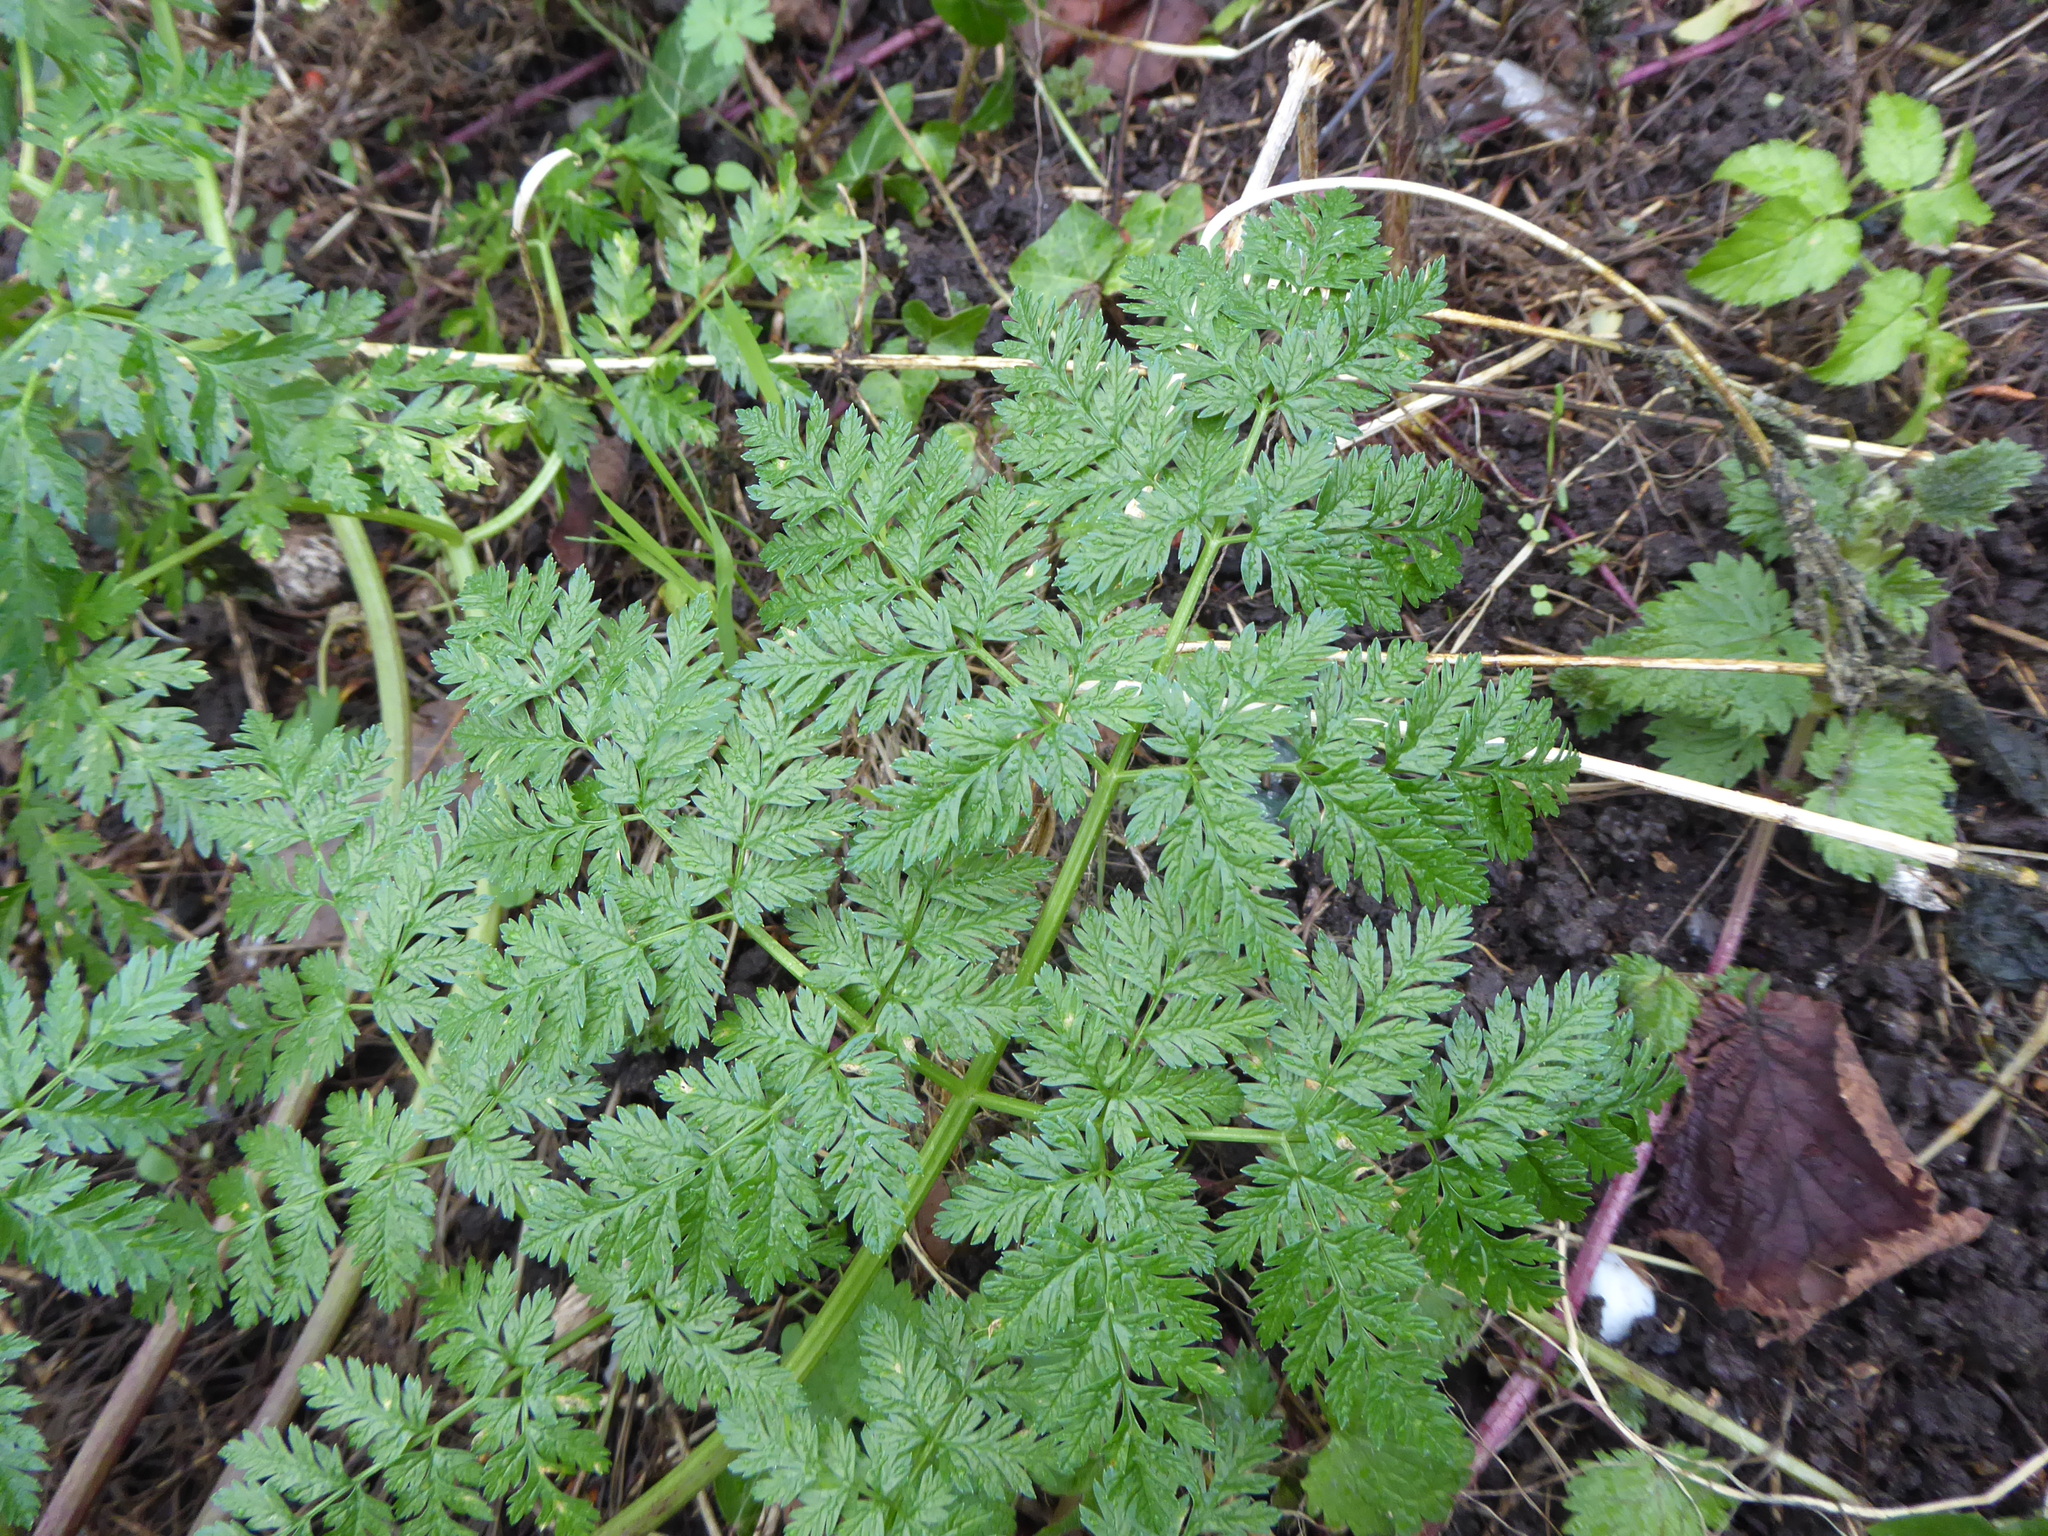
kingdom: Plantae
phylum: Tracheophyta
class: Magnoliopsida
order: Apiales
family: Apiaceae
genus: Anthriscus
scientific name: Anthriscus sylvestris
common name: Cow parsley
